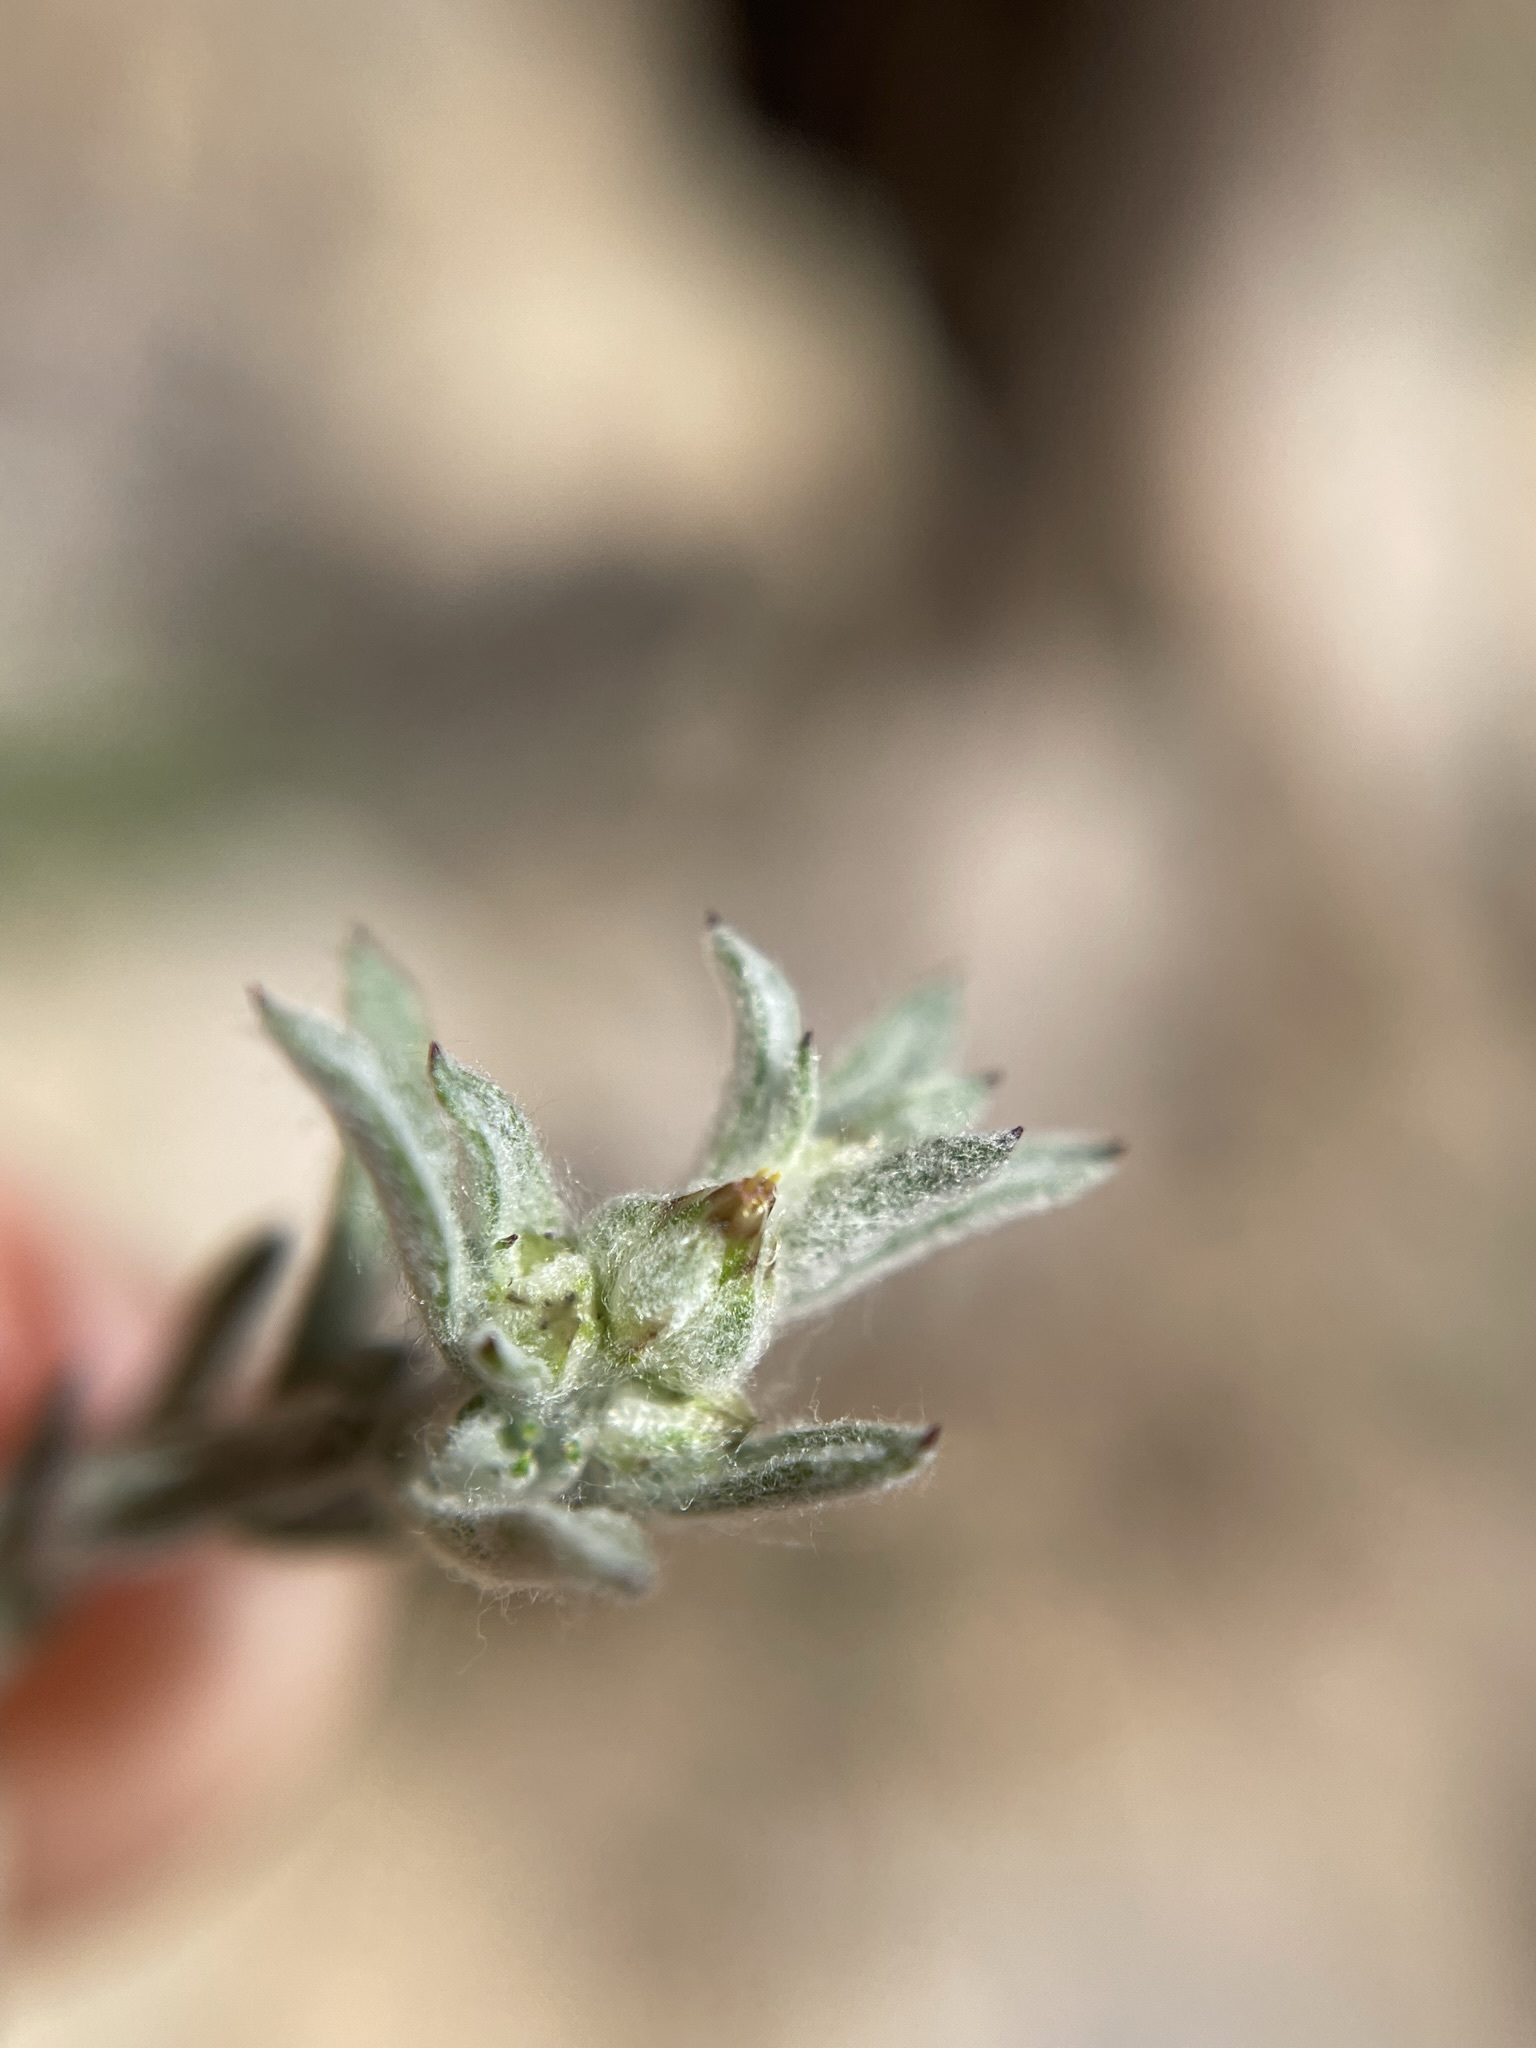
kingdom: Plantae
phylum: Tracheophyta
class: Magnoliopsida
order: Asterales
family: Asteraceae
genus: Logfia
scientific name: Logfia californica
